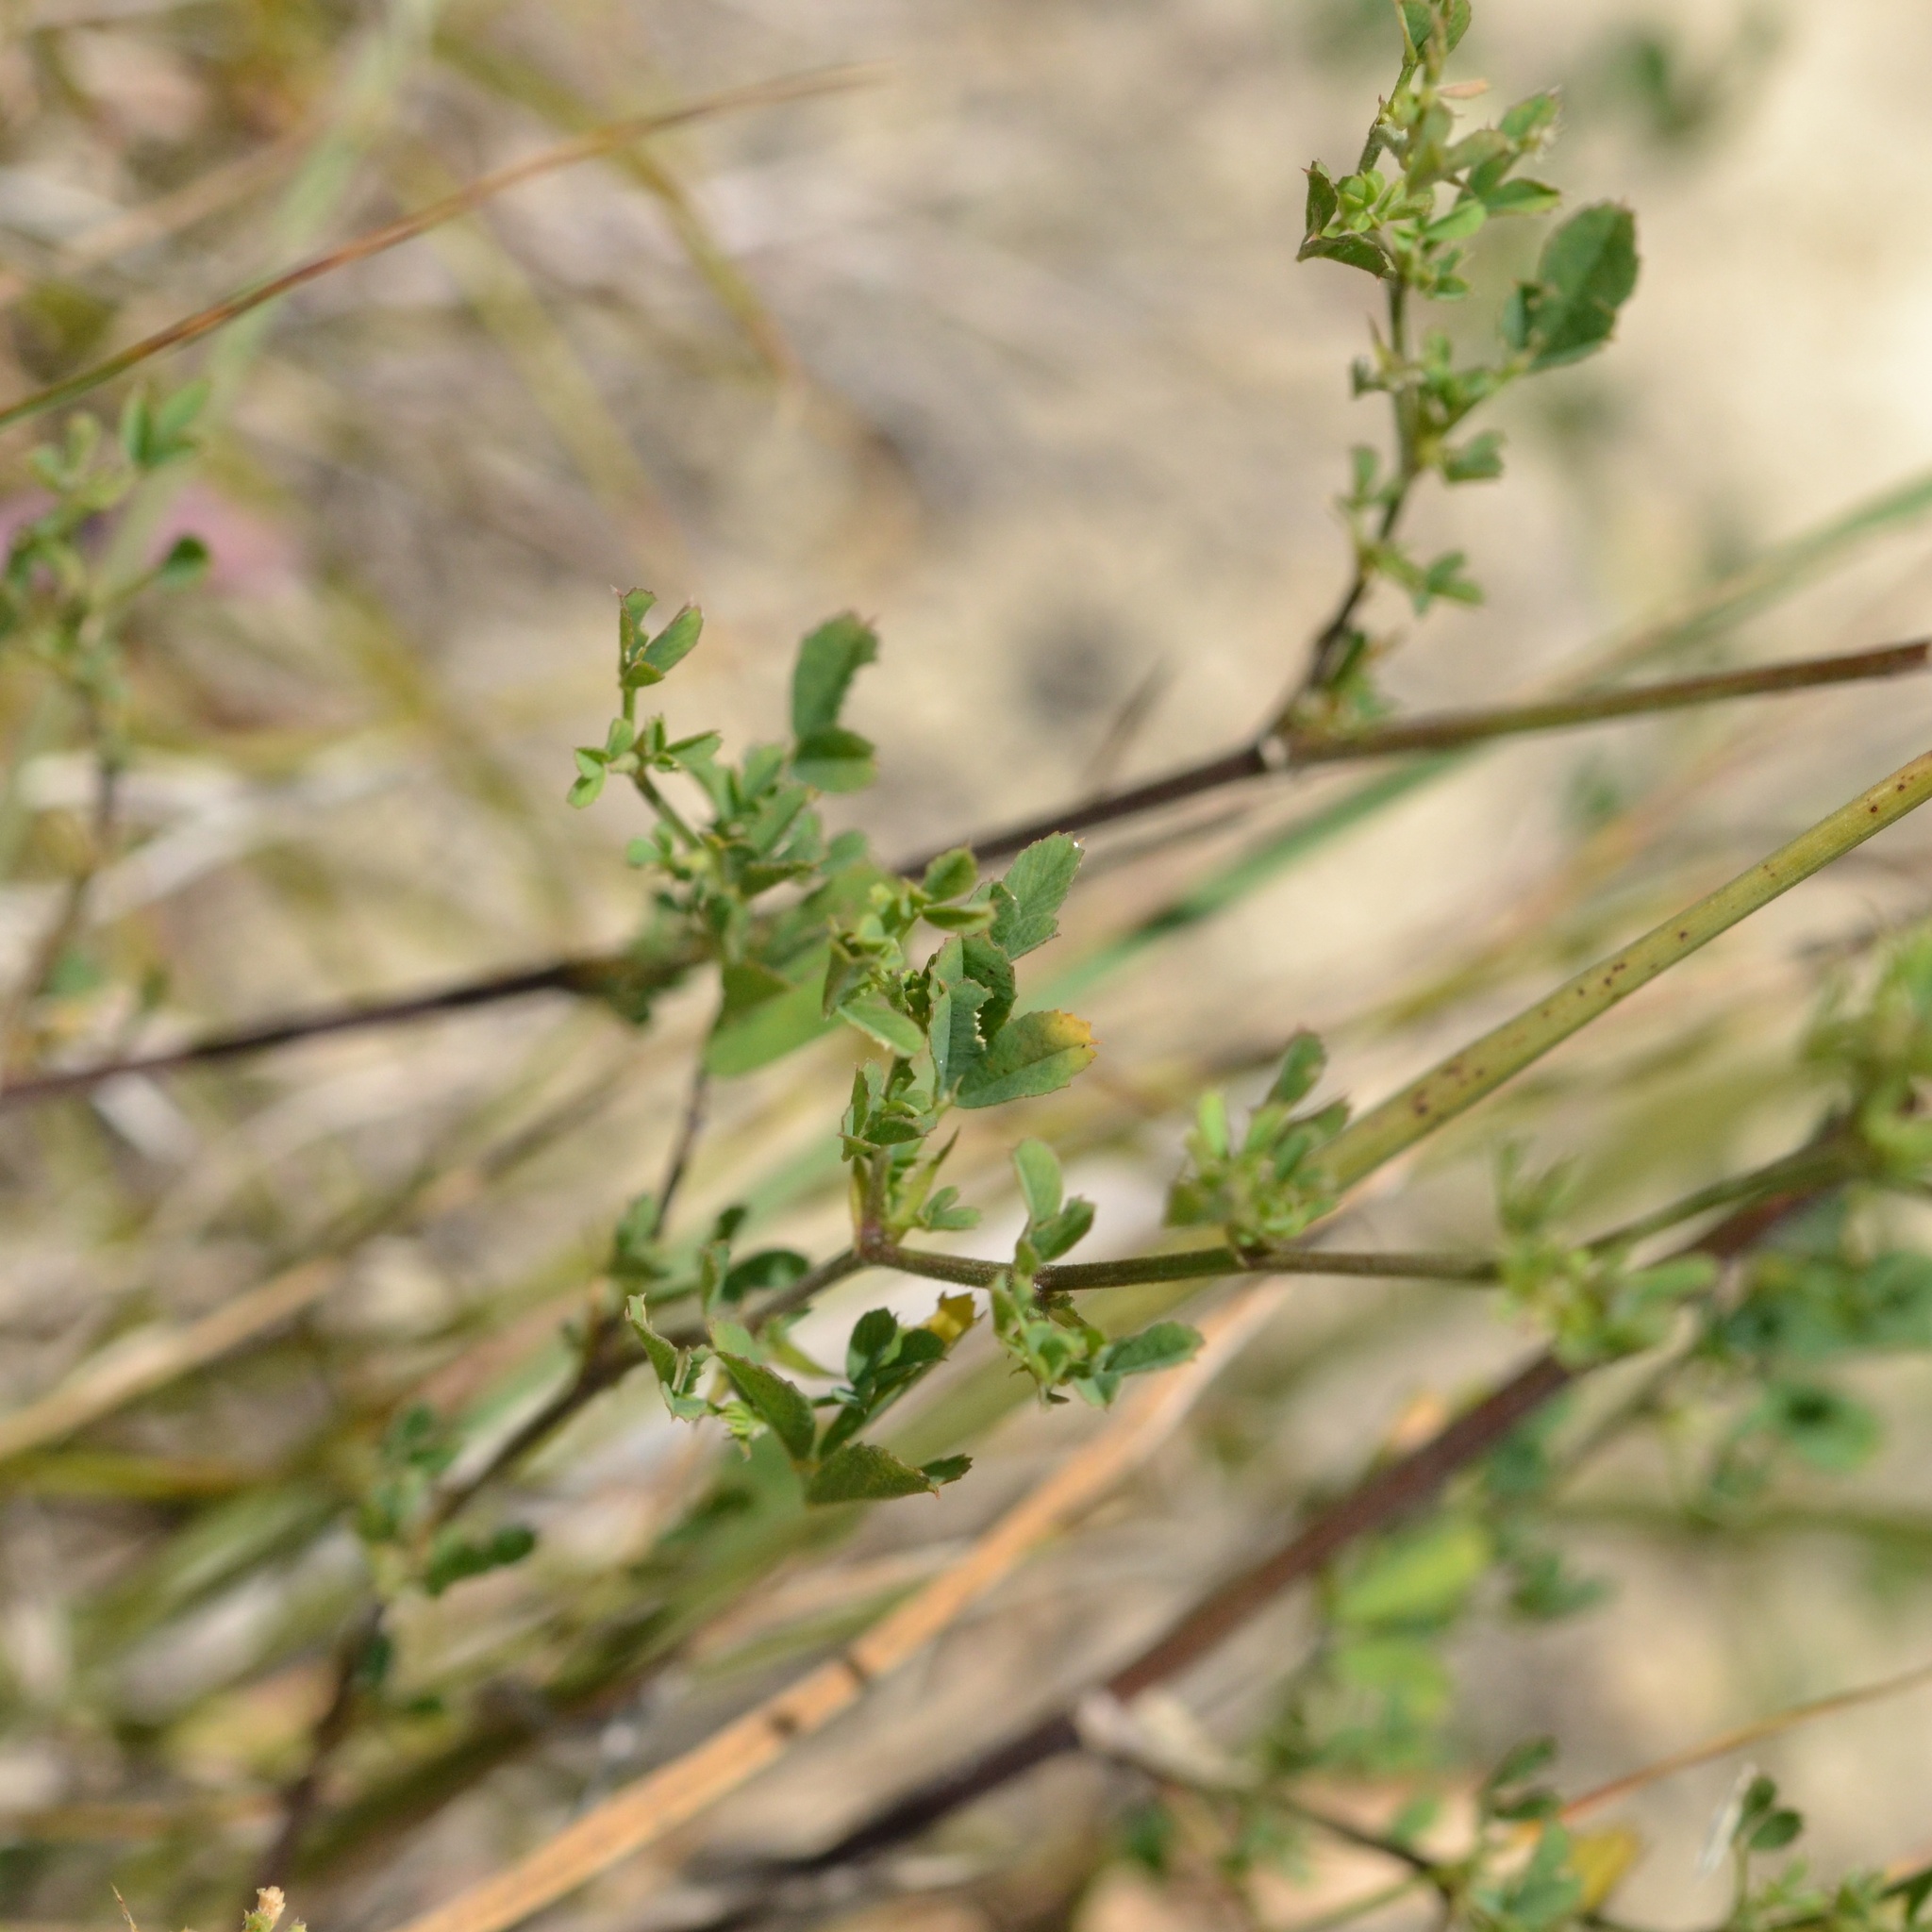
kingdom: Plantae
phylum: Tracheophyta
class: Magnoliopsida
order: Fabales
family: Fabaceae
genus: Medicago
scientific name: Medicago falcata
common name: Sickle medick
